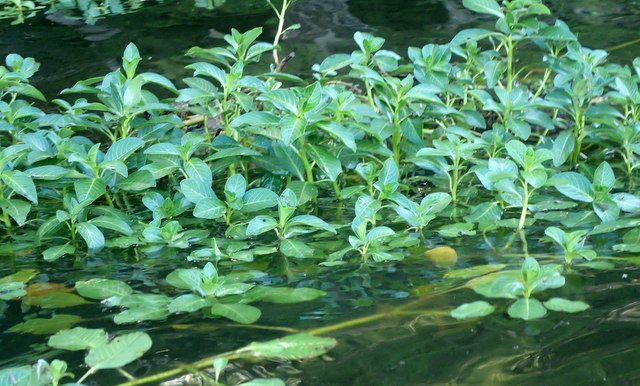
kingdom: Plantae
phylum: Tracheophyta
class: Magnoliopsida
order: Myrtales
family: Onagraceae
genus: Ludwigia
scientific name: Ludwigia peploides
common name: Floating primrose-willow
